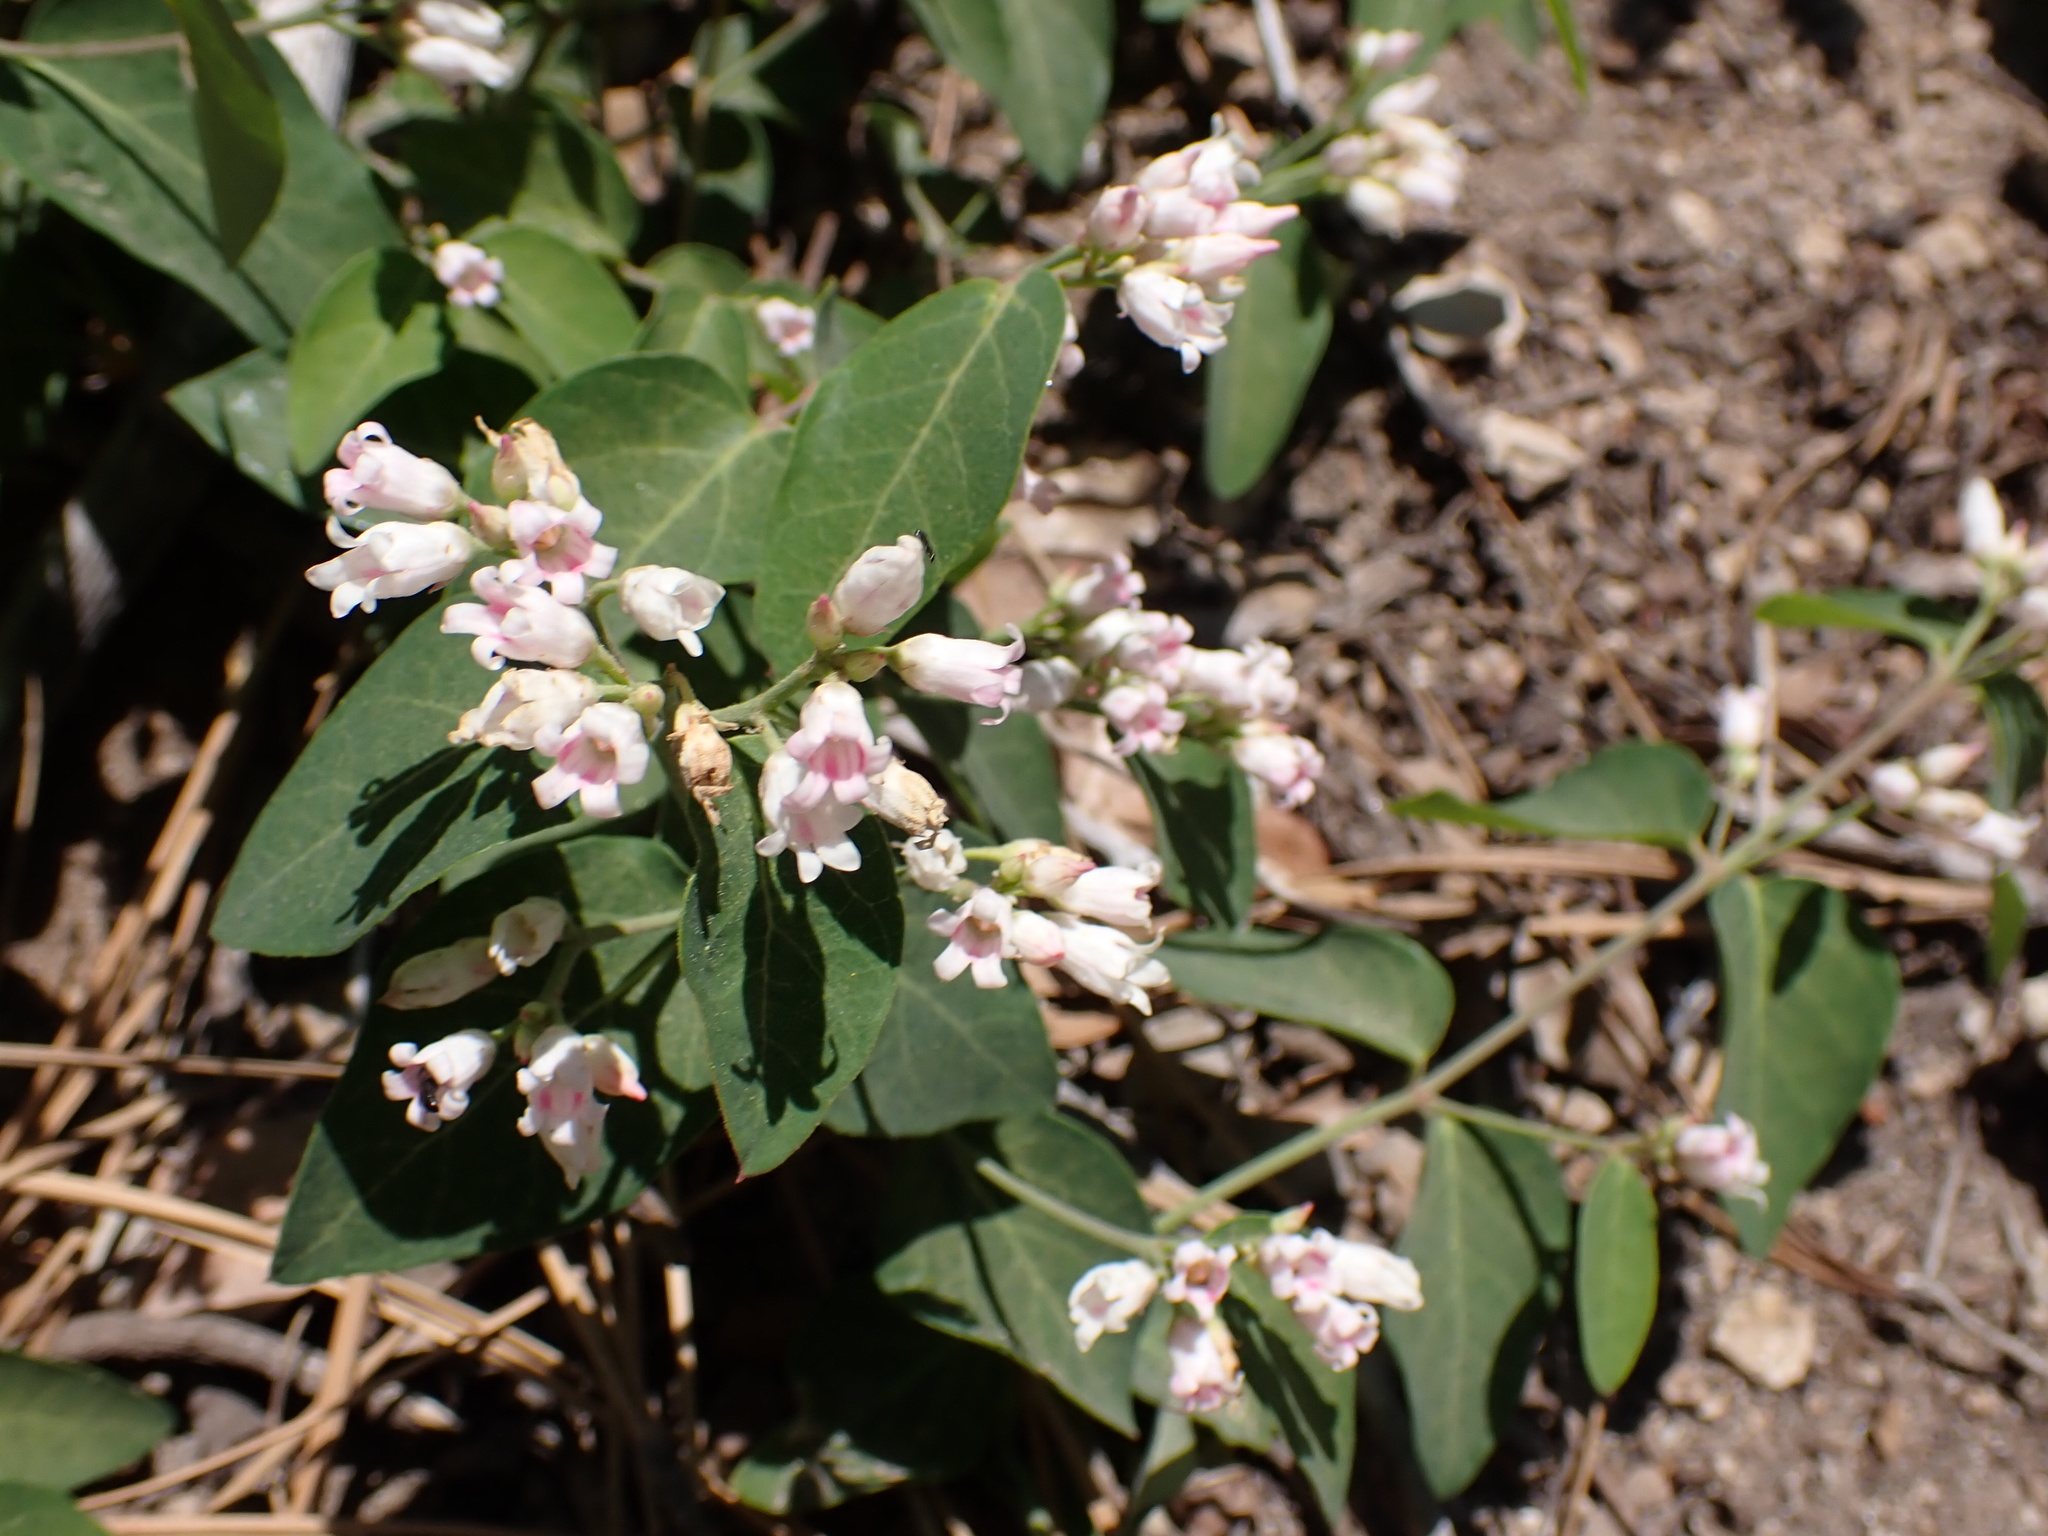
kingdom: Plantae
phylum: Tracheophyta
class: Magnoliopsida
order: Gentianales
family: Apocynaceae
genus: Apocynum
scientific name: Apocynum androsaemifolium
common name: Spreading dogbane
